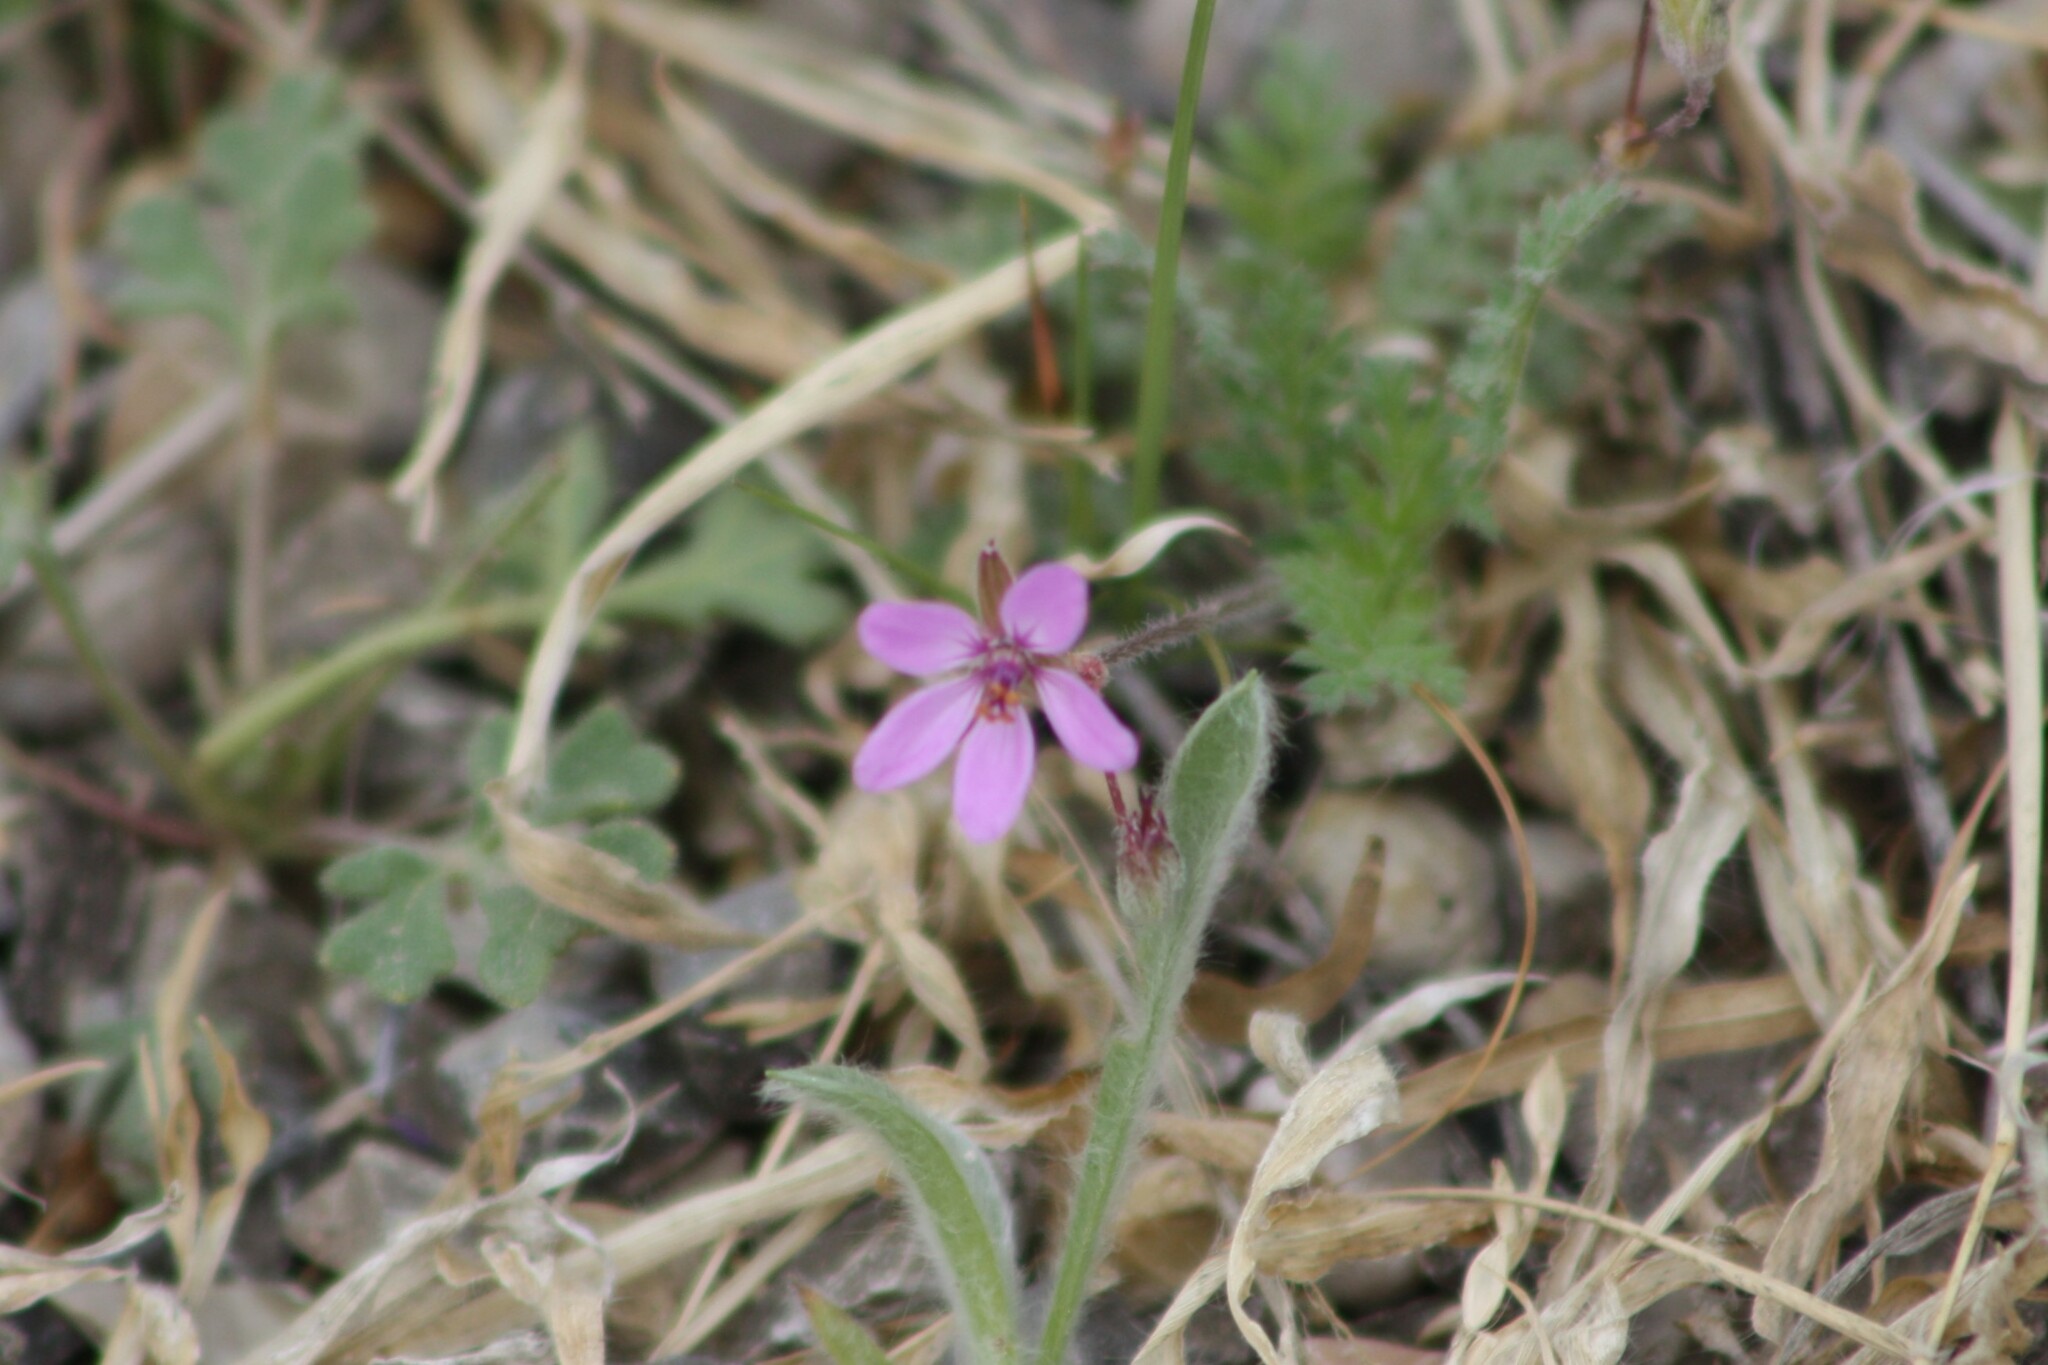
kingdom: Plantae
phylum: Tracheophyta
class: Magnoliopsida
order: Geraniales
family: Geraniaceae
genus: Erodium
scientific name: Erodium cicutarium
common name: Common stork's-bill
